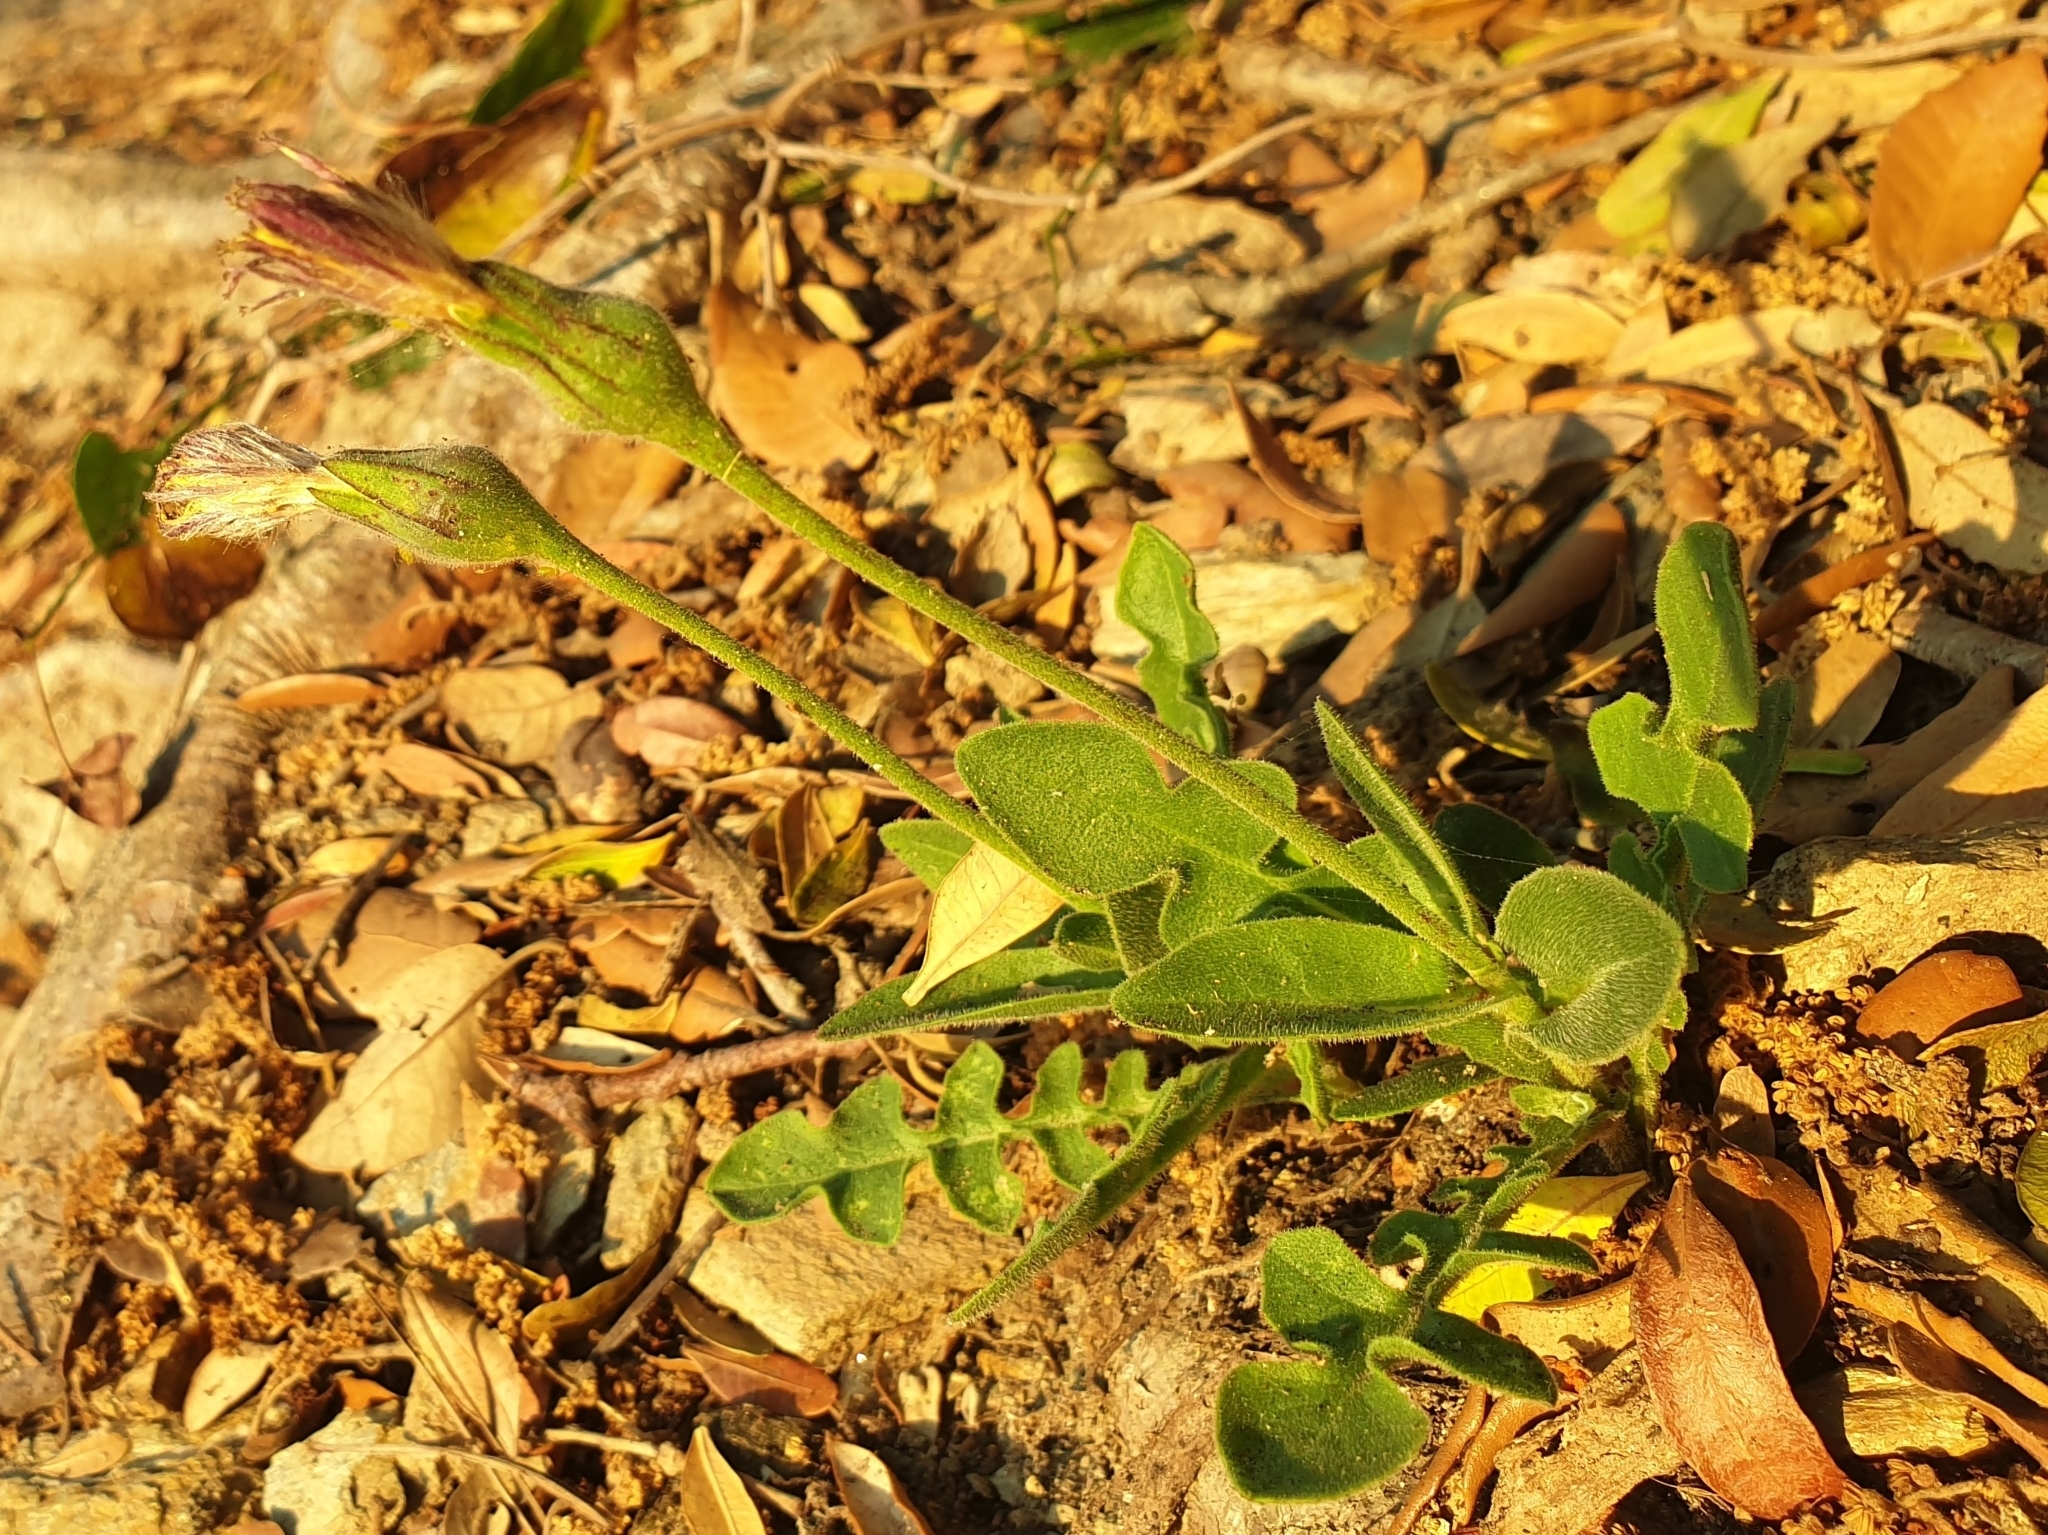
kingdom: Plantae
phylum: Tracheophyta
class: Magnoliopsida
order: Asterales
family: Asteraceae
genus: Urospermum
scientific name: Urospermum dalechampii
